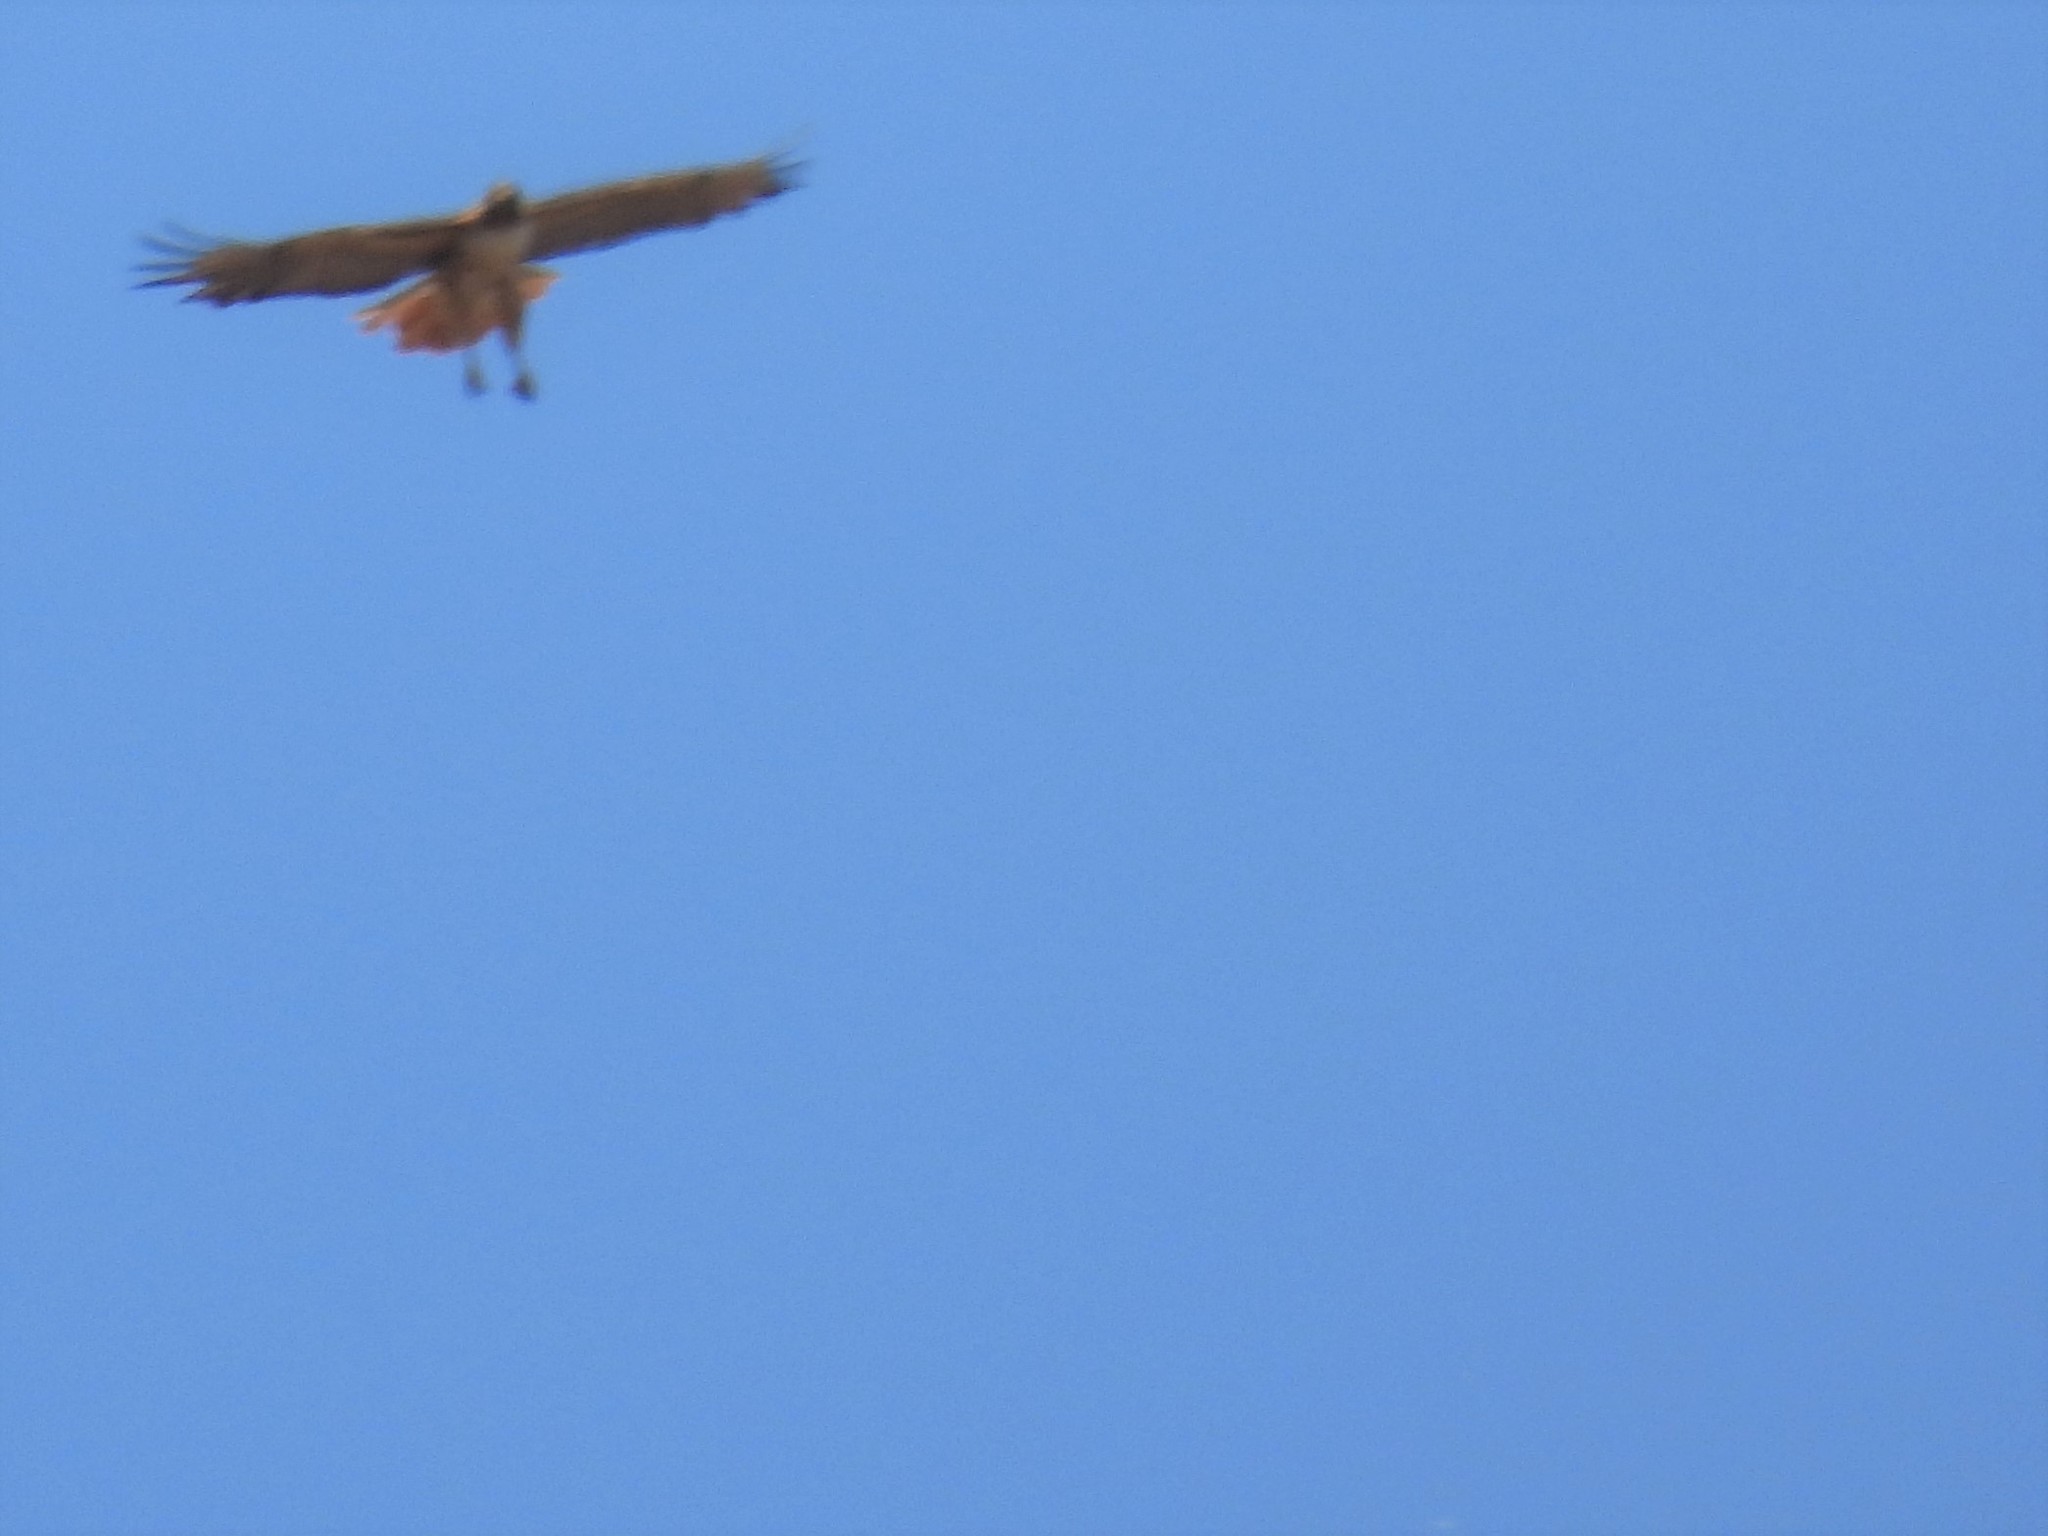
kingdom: Animalia
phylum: Chordata
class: Aves
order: Accipitriformes
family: Accipitridae
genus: Buteo
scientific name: Buteo jamaicensis
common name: Red-tailed hawk
